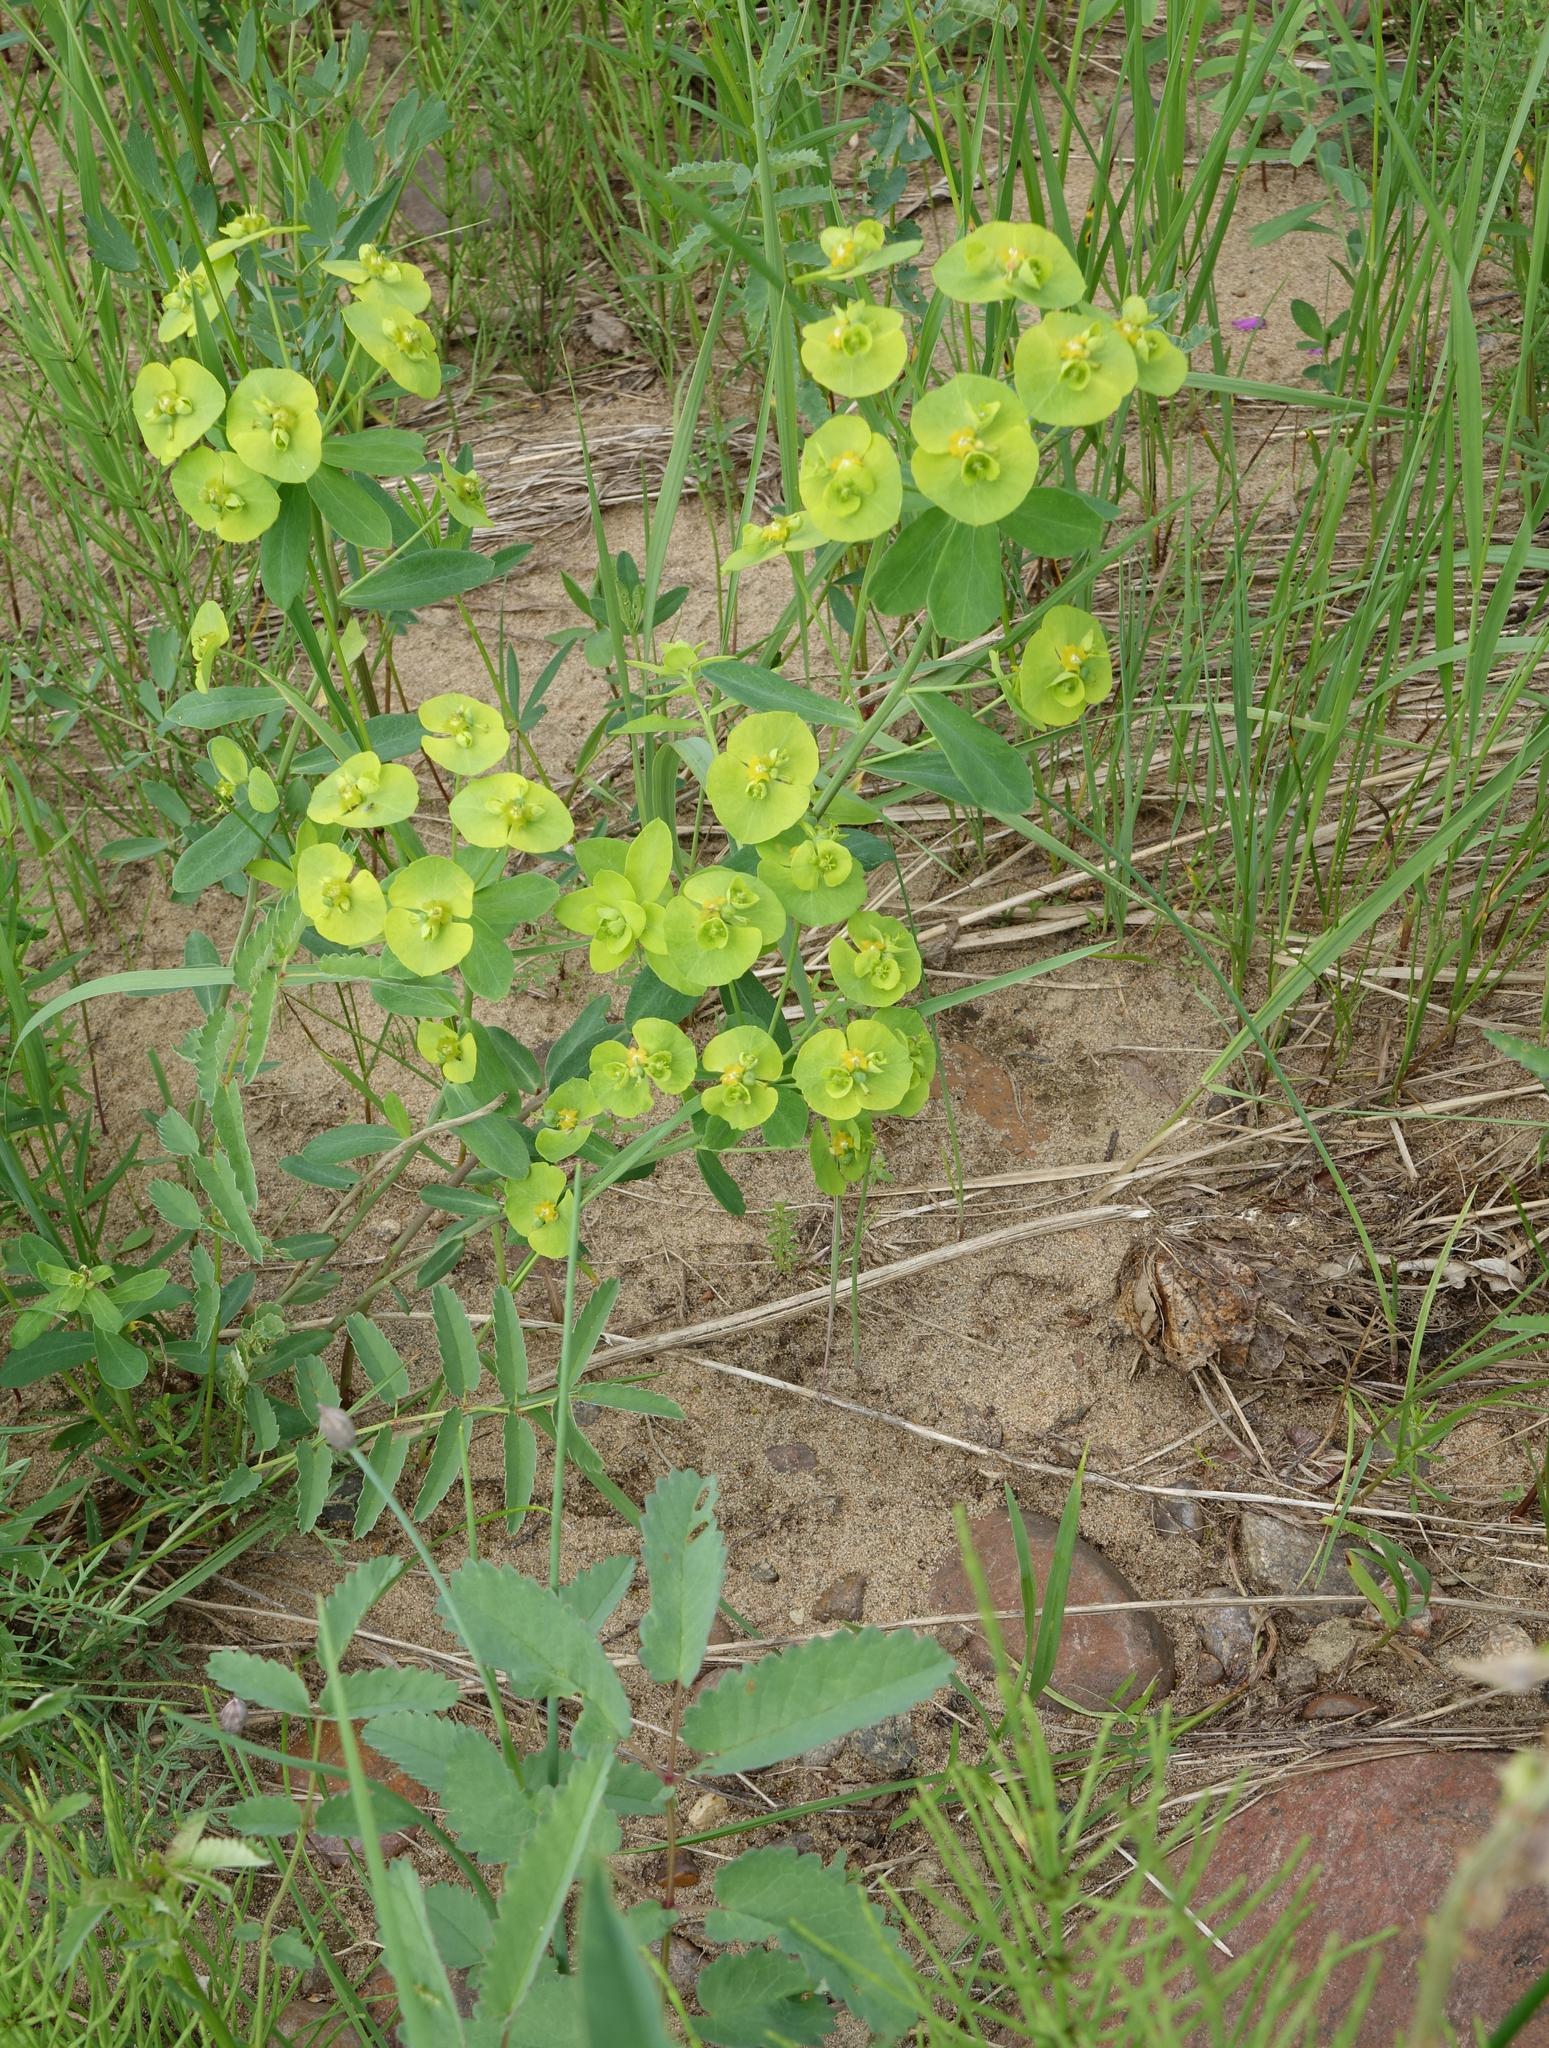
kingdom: Plantae
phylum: Tracheophyta
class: Magnoliopsida
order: Malpighiales
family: Euphorbiaceae
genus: Euphorbia
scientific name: Euphorbia borealis
